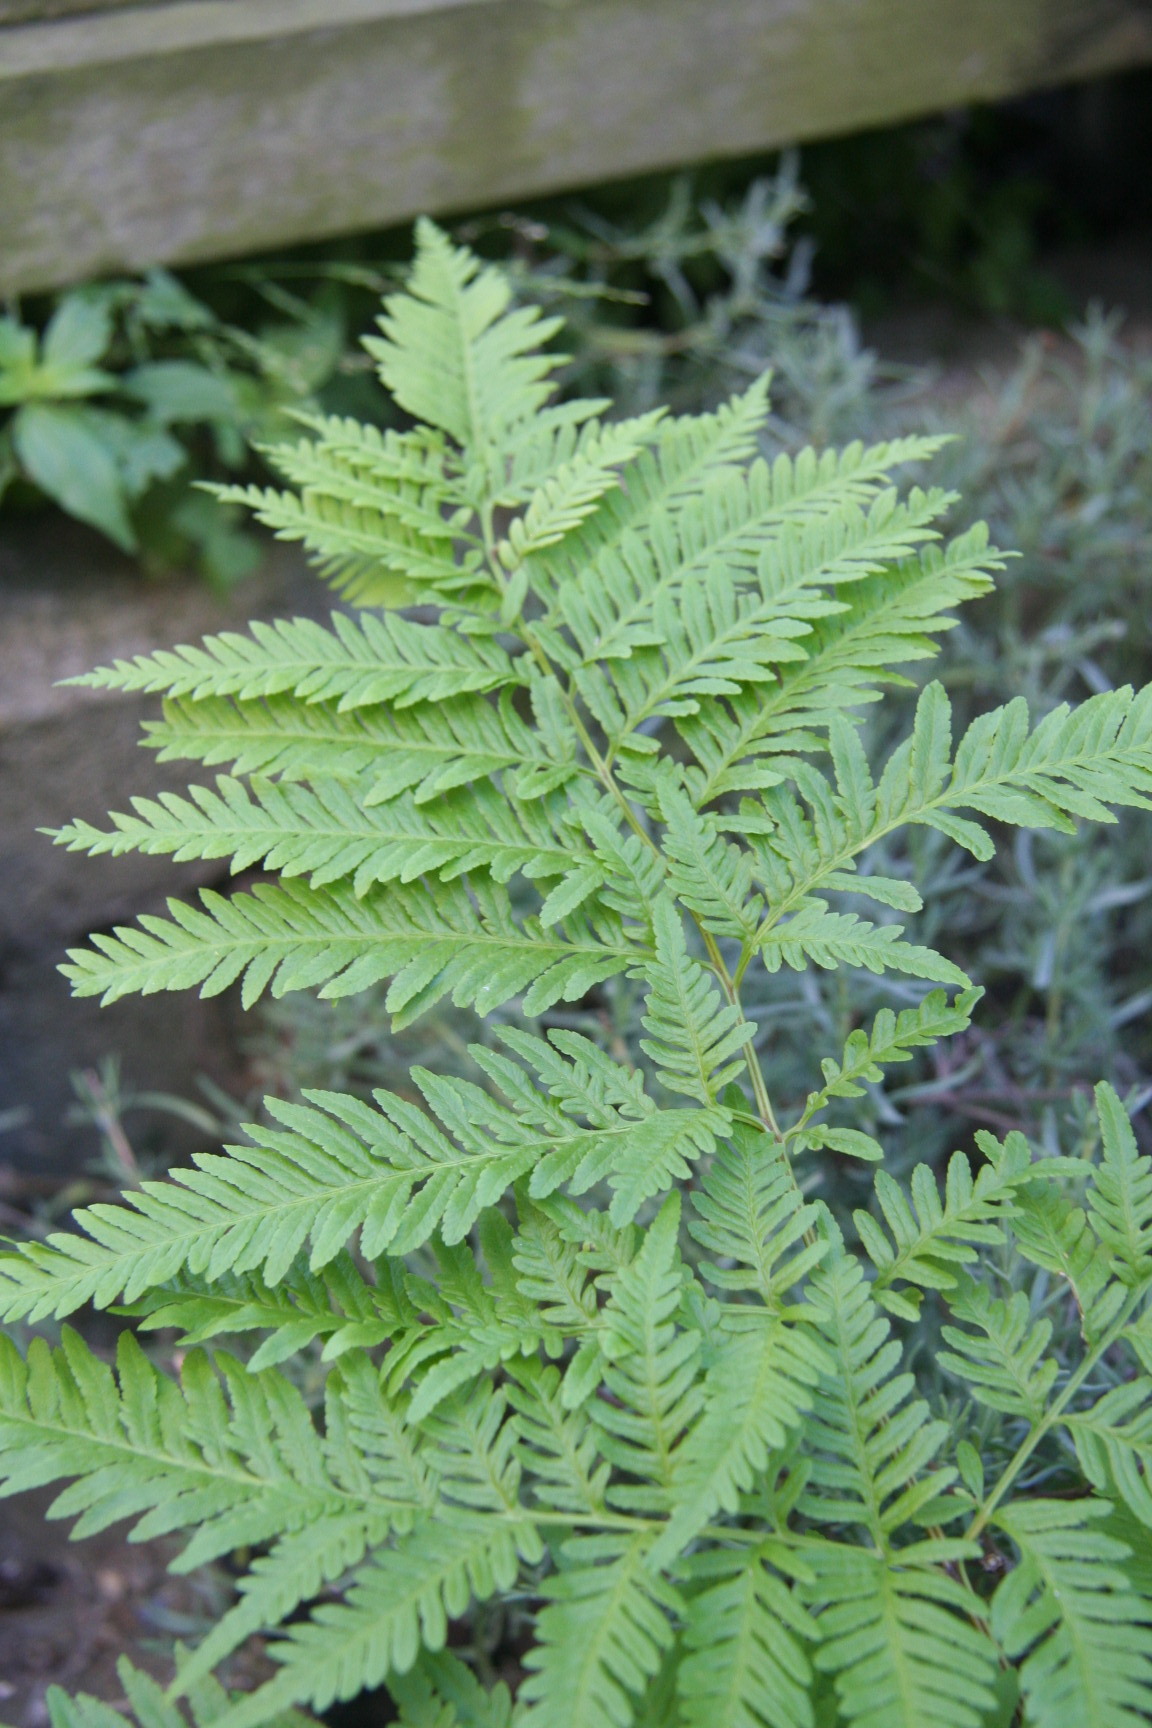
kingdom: Plantae
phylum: Tracheophyta
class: Polypodiopsida
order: Polypodiales
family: Pteridaceae
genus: Pteris
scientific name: Pteris tremula
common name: Australian brake
